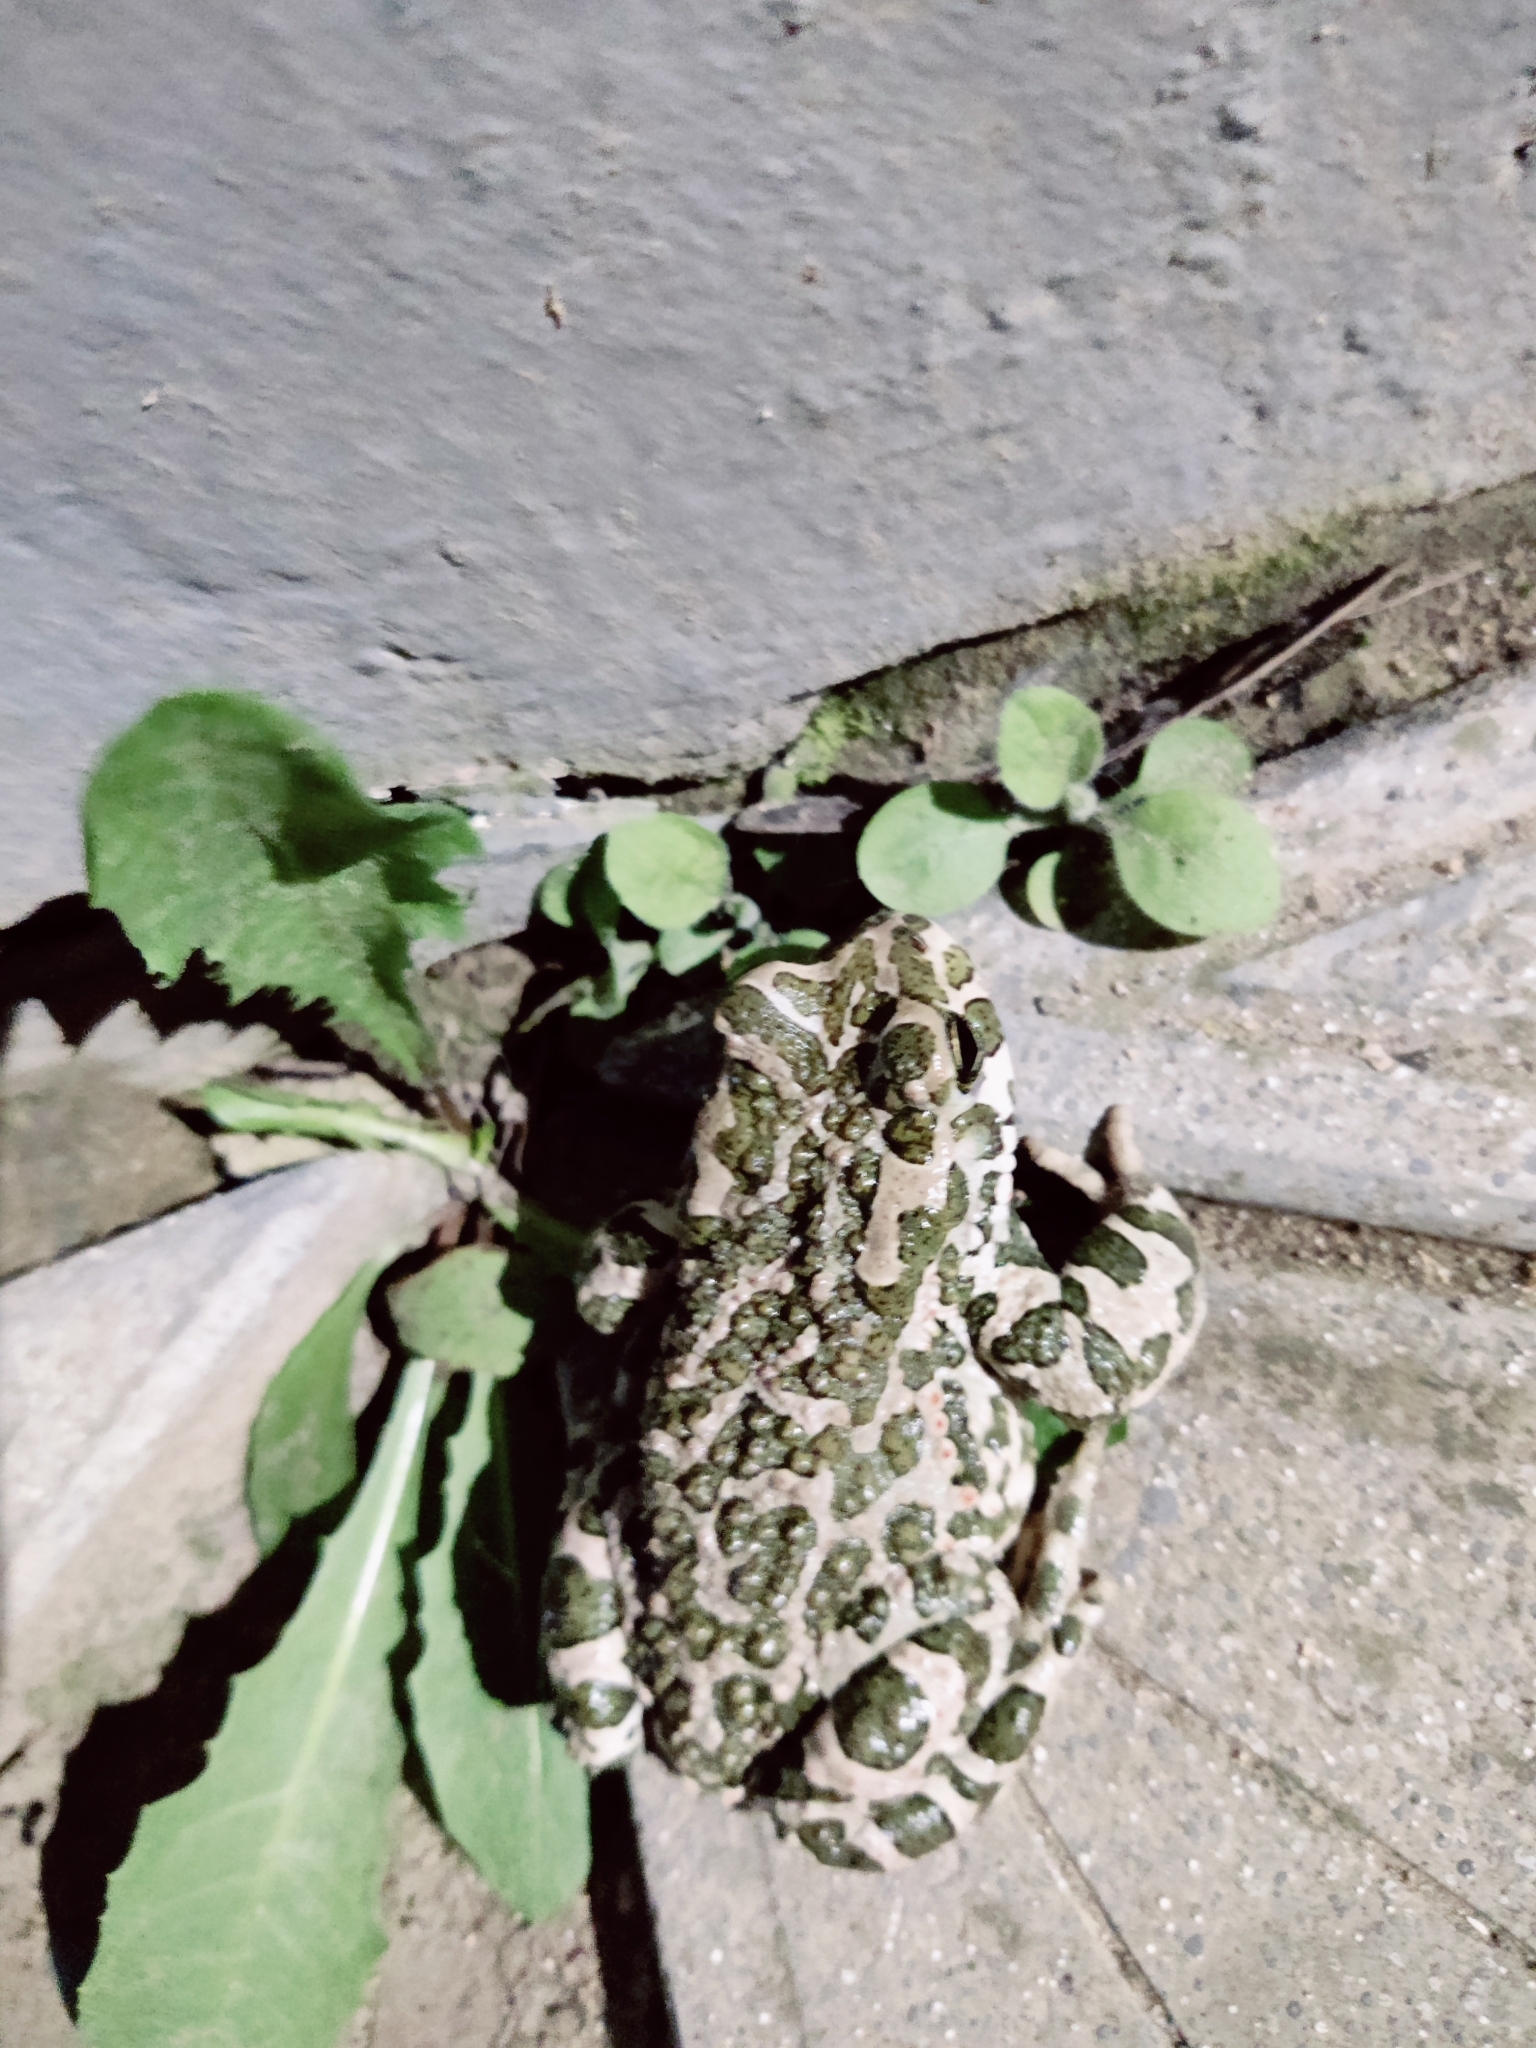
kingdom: Animalia
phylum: Chordata
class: Amphibia
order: Anura
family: Bufonidae
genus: Bufotes
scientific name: Bufotes viridis
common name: European green toad
